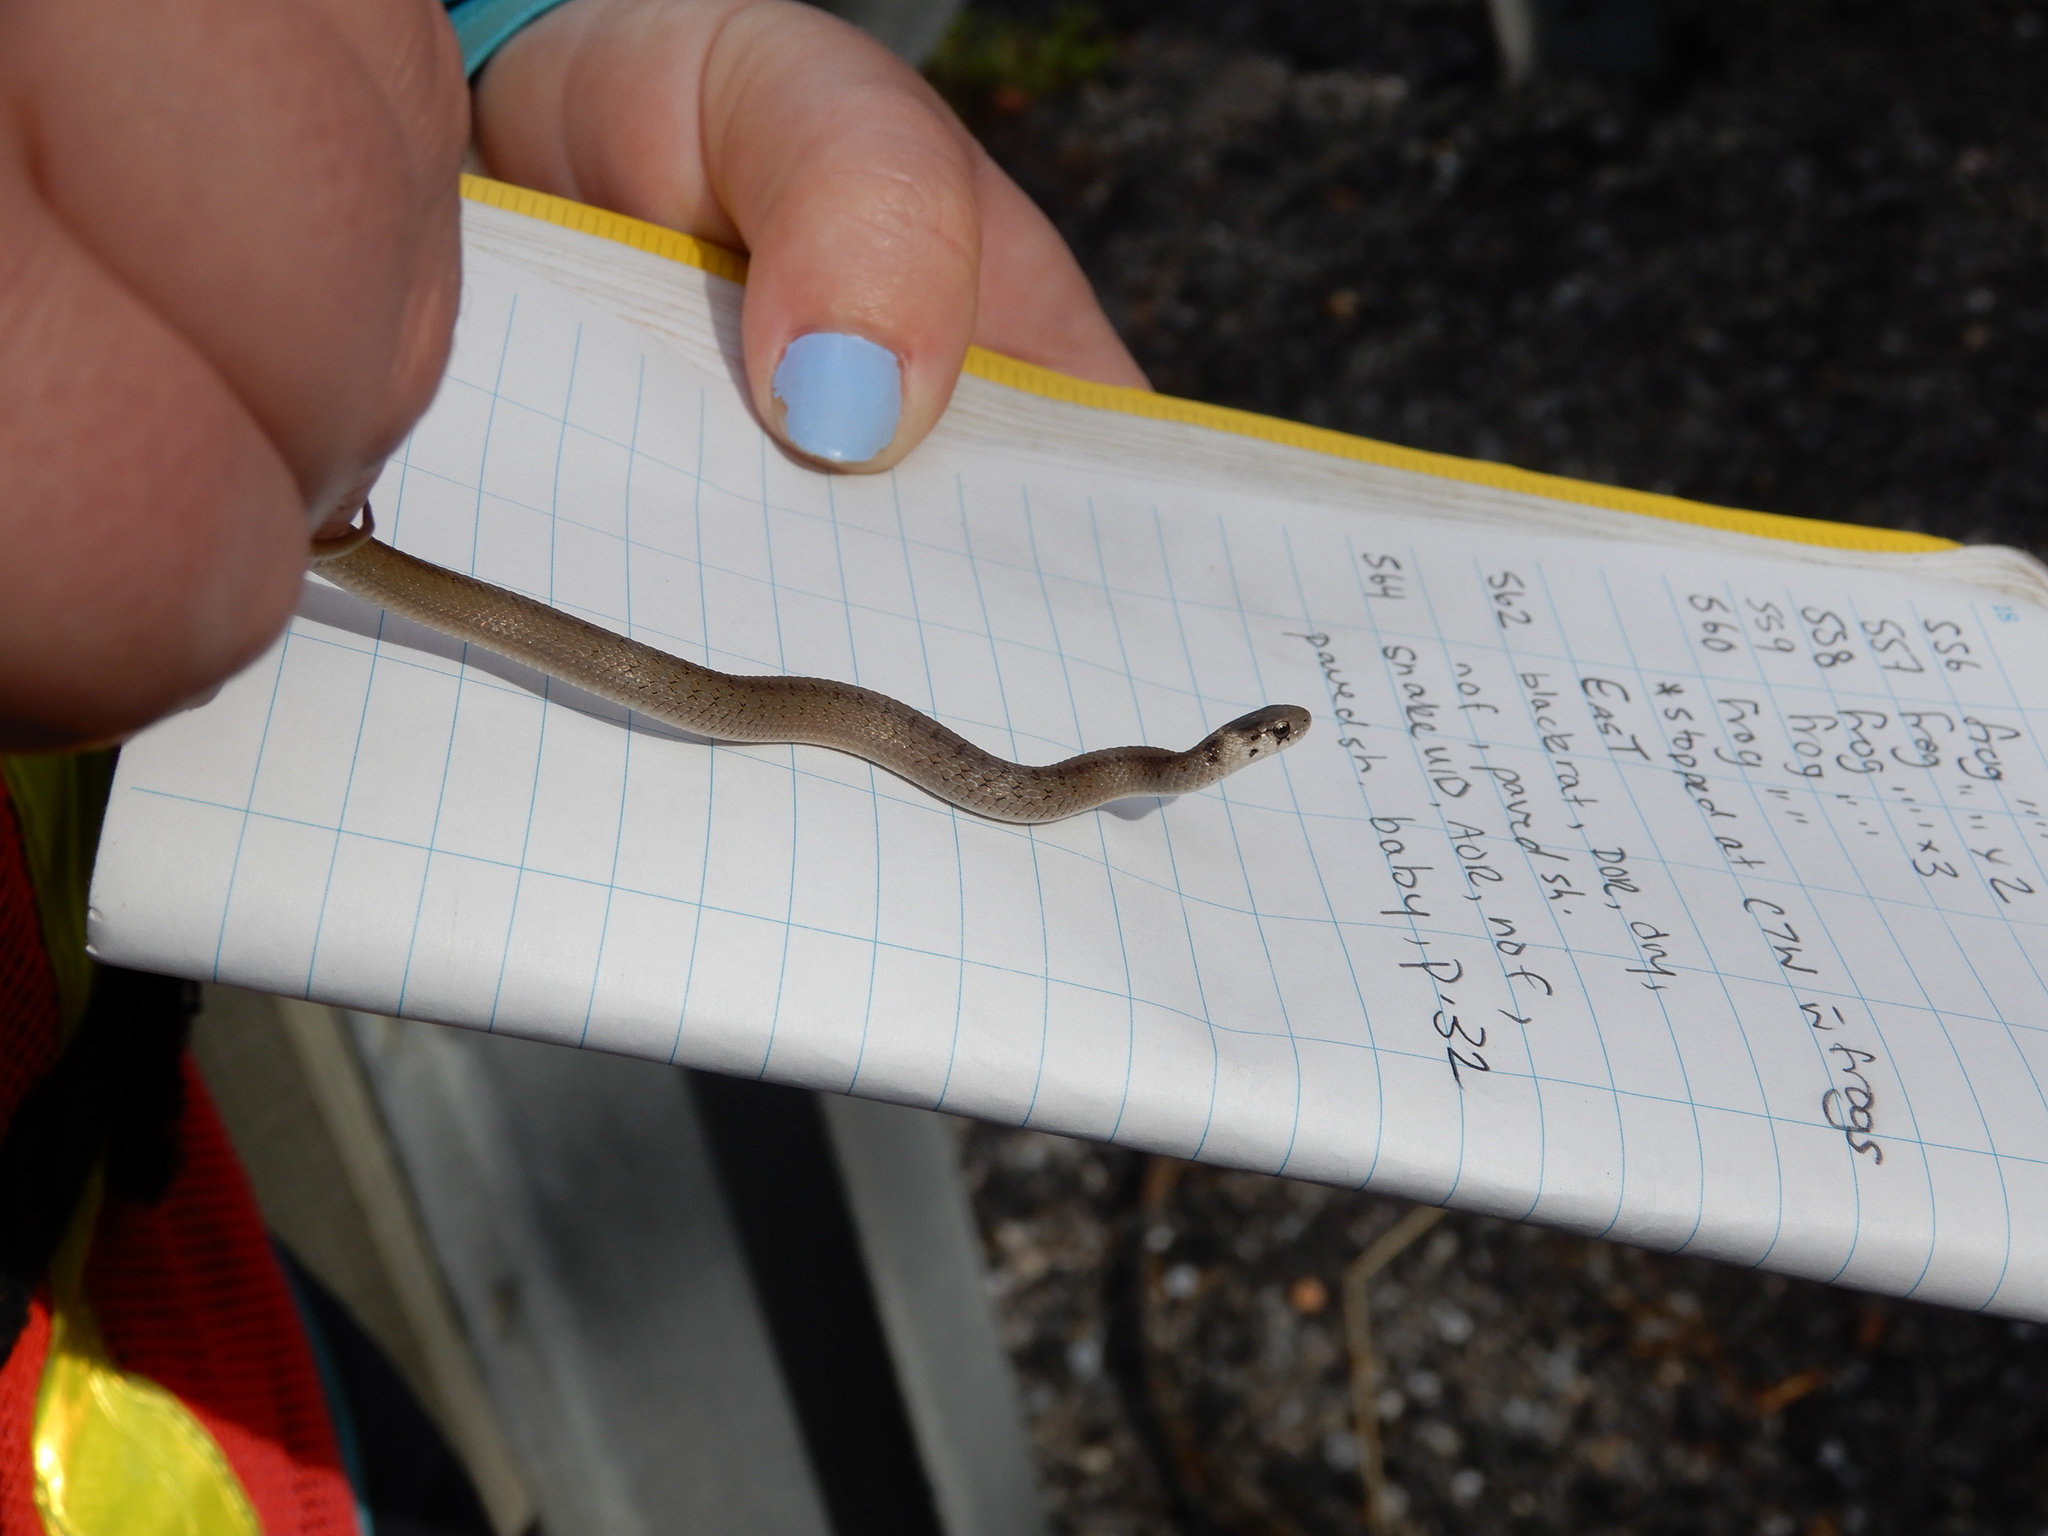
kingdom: Animalia
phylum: Chordata
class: Squamata
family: Colubridae
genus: Storeria
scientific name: Storeria dekayi
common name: (dekay’s) brown snake
